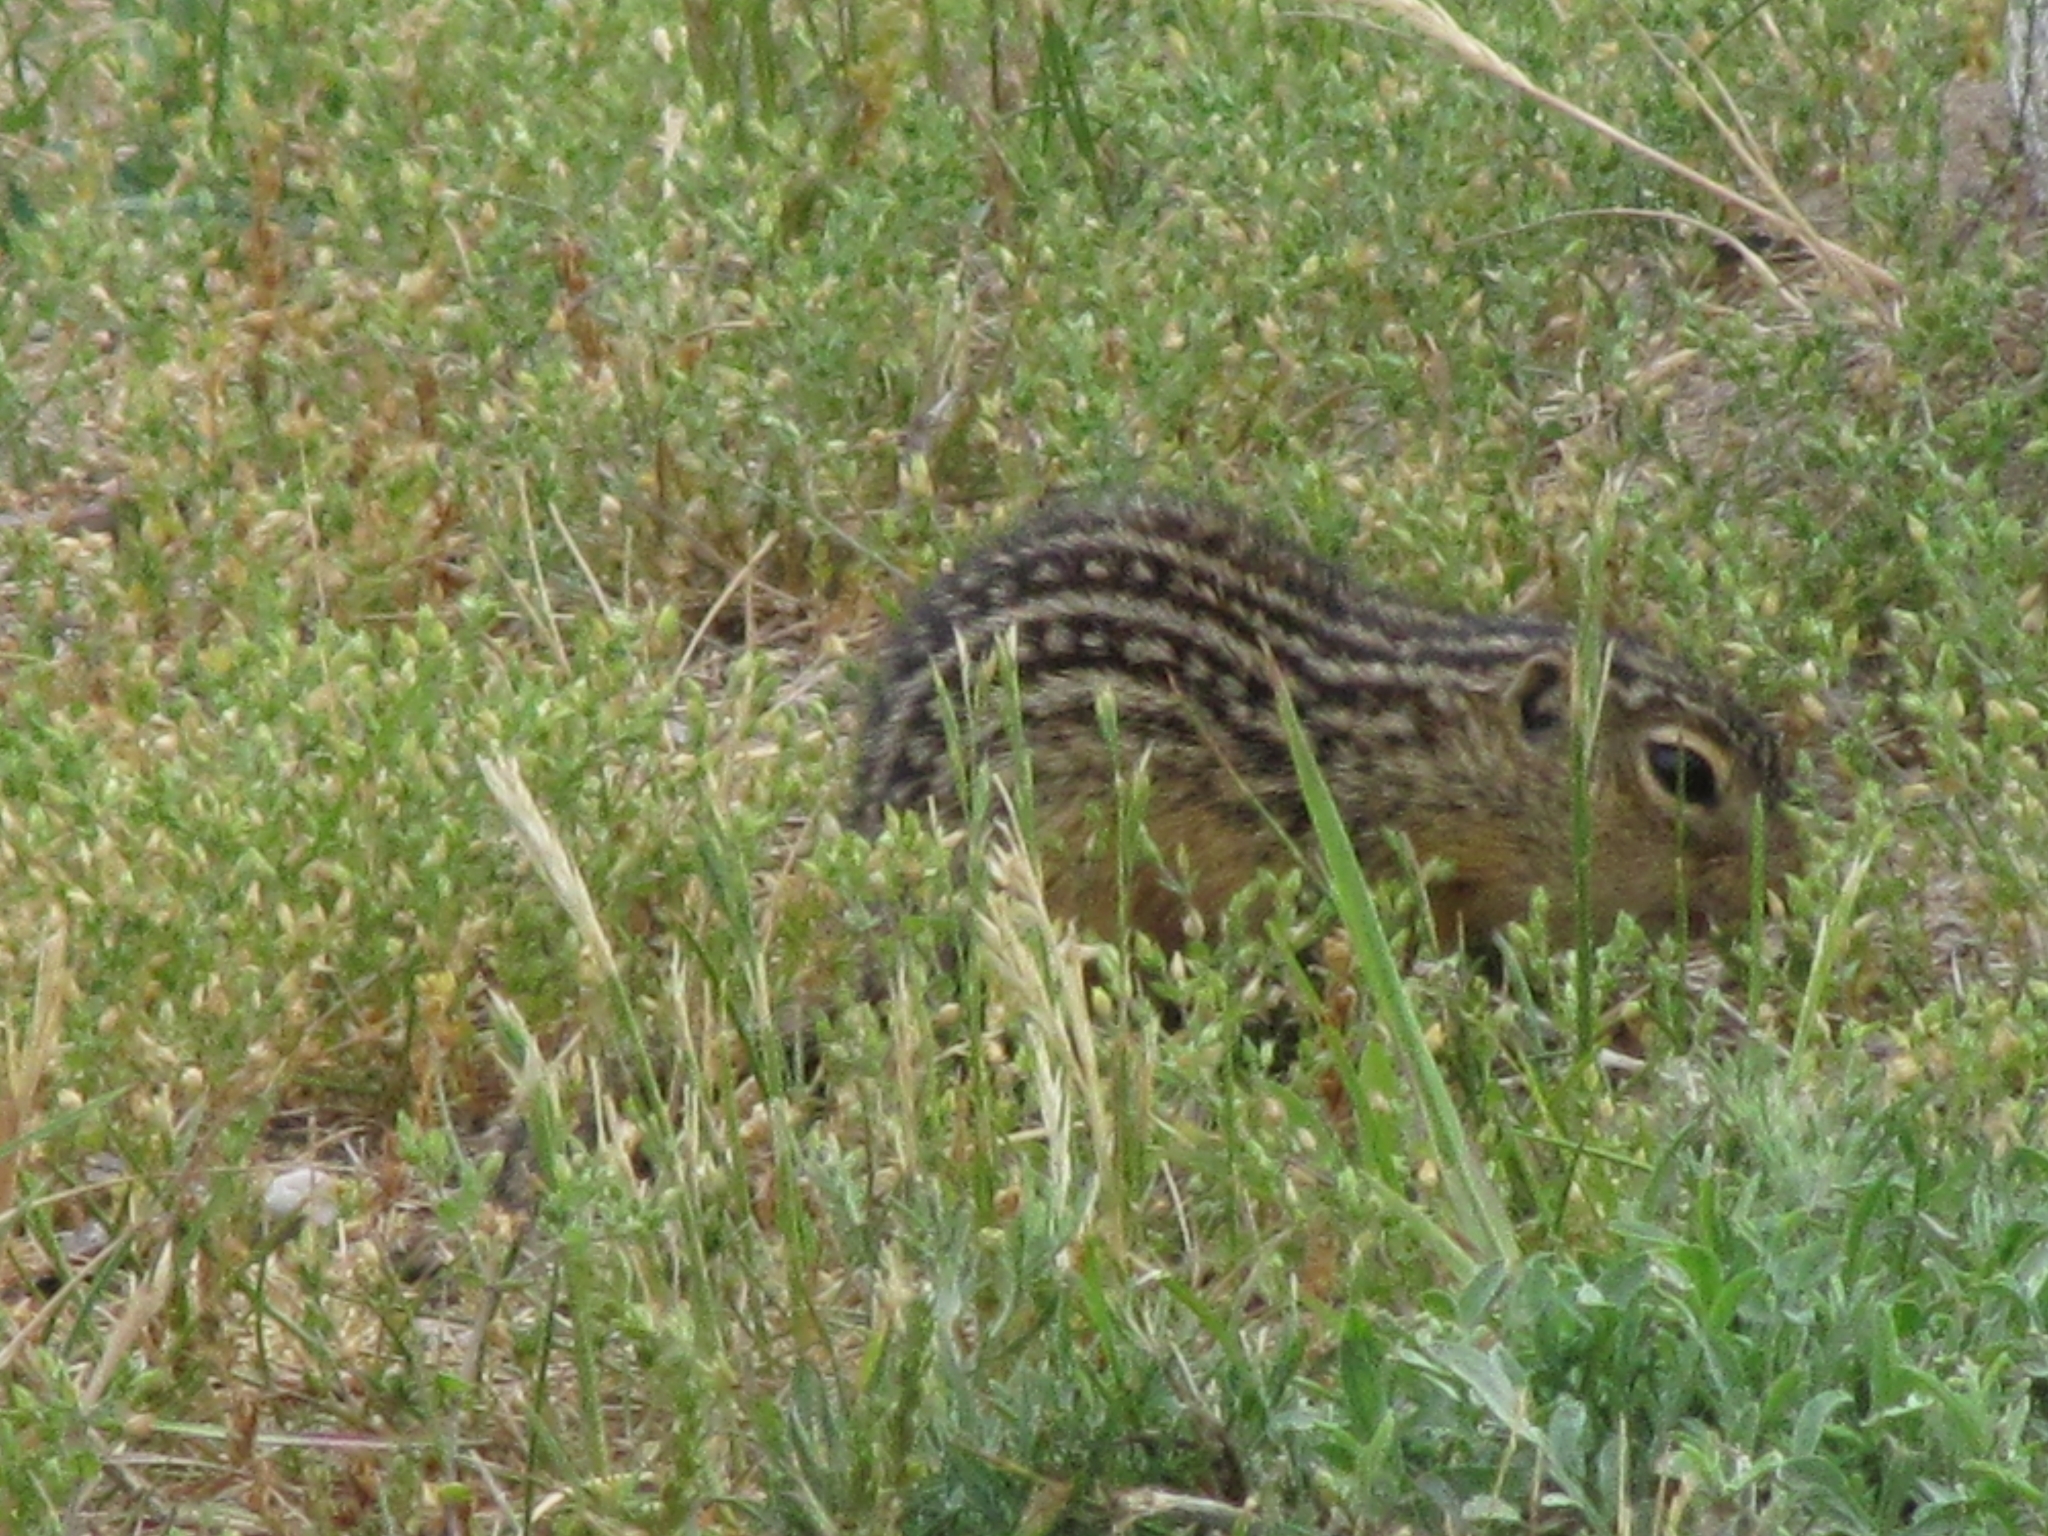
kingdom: Animalia
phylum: Chordata
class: Mammalia
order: Rodentia
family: Sciuridae
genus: Ictidomys
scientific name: Ictidomys tridecemlineatus
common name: Thirteen-lined ground squirrel
